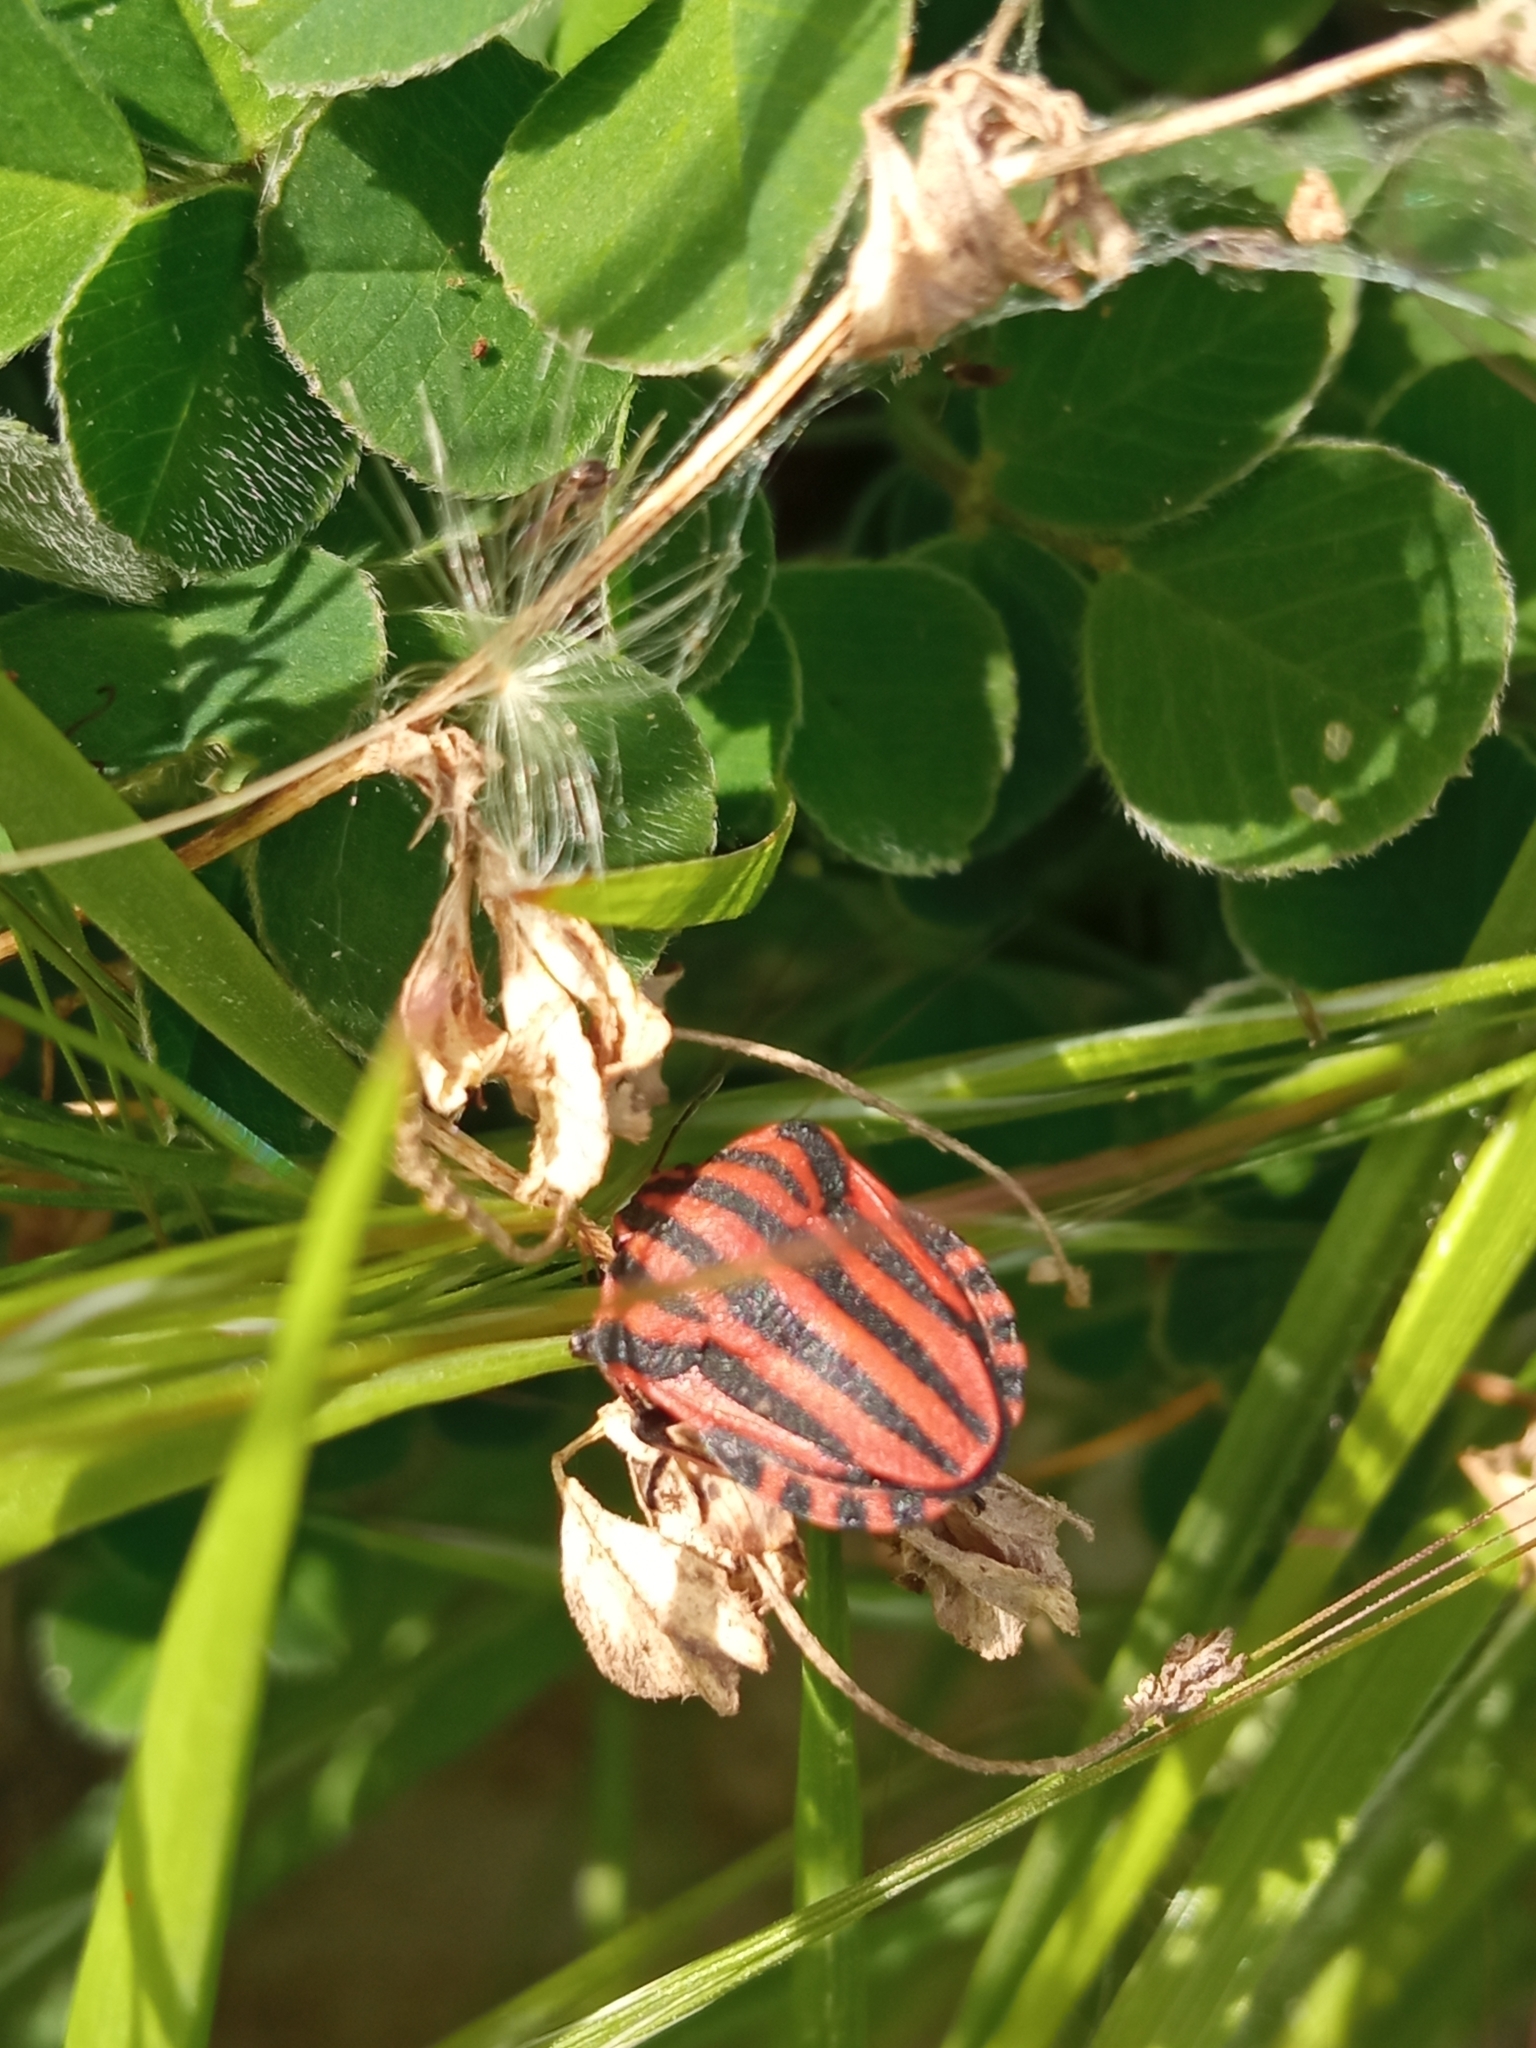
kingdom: Animalia
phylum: Arthropoda
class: Insecta
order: Hemiptera
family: Pentatomidae
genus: Graphosoma
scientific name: Graphosoma italicum
